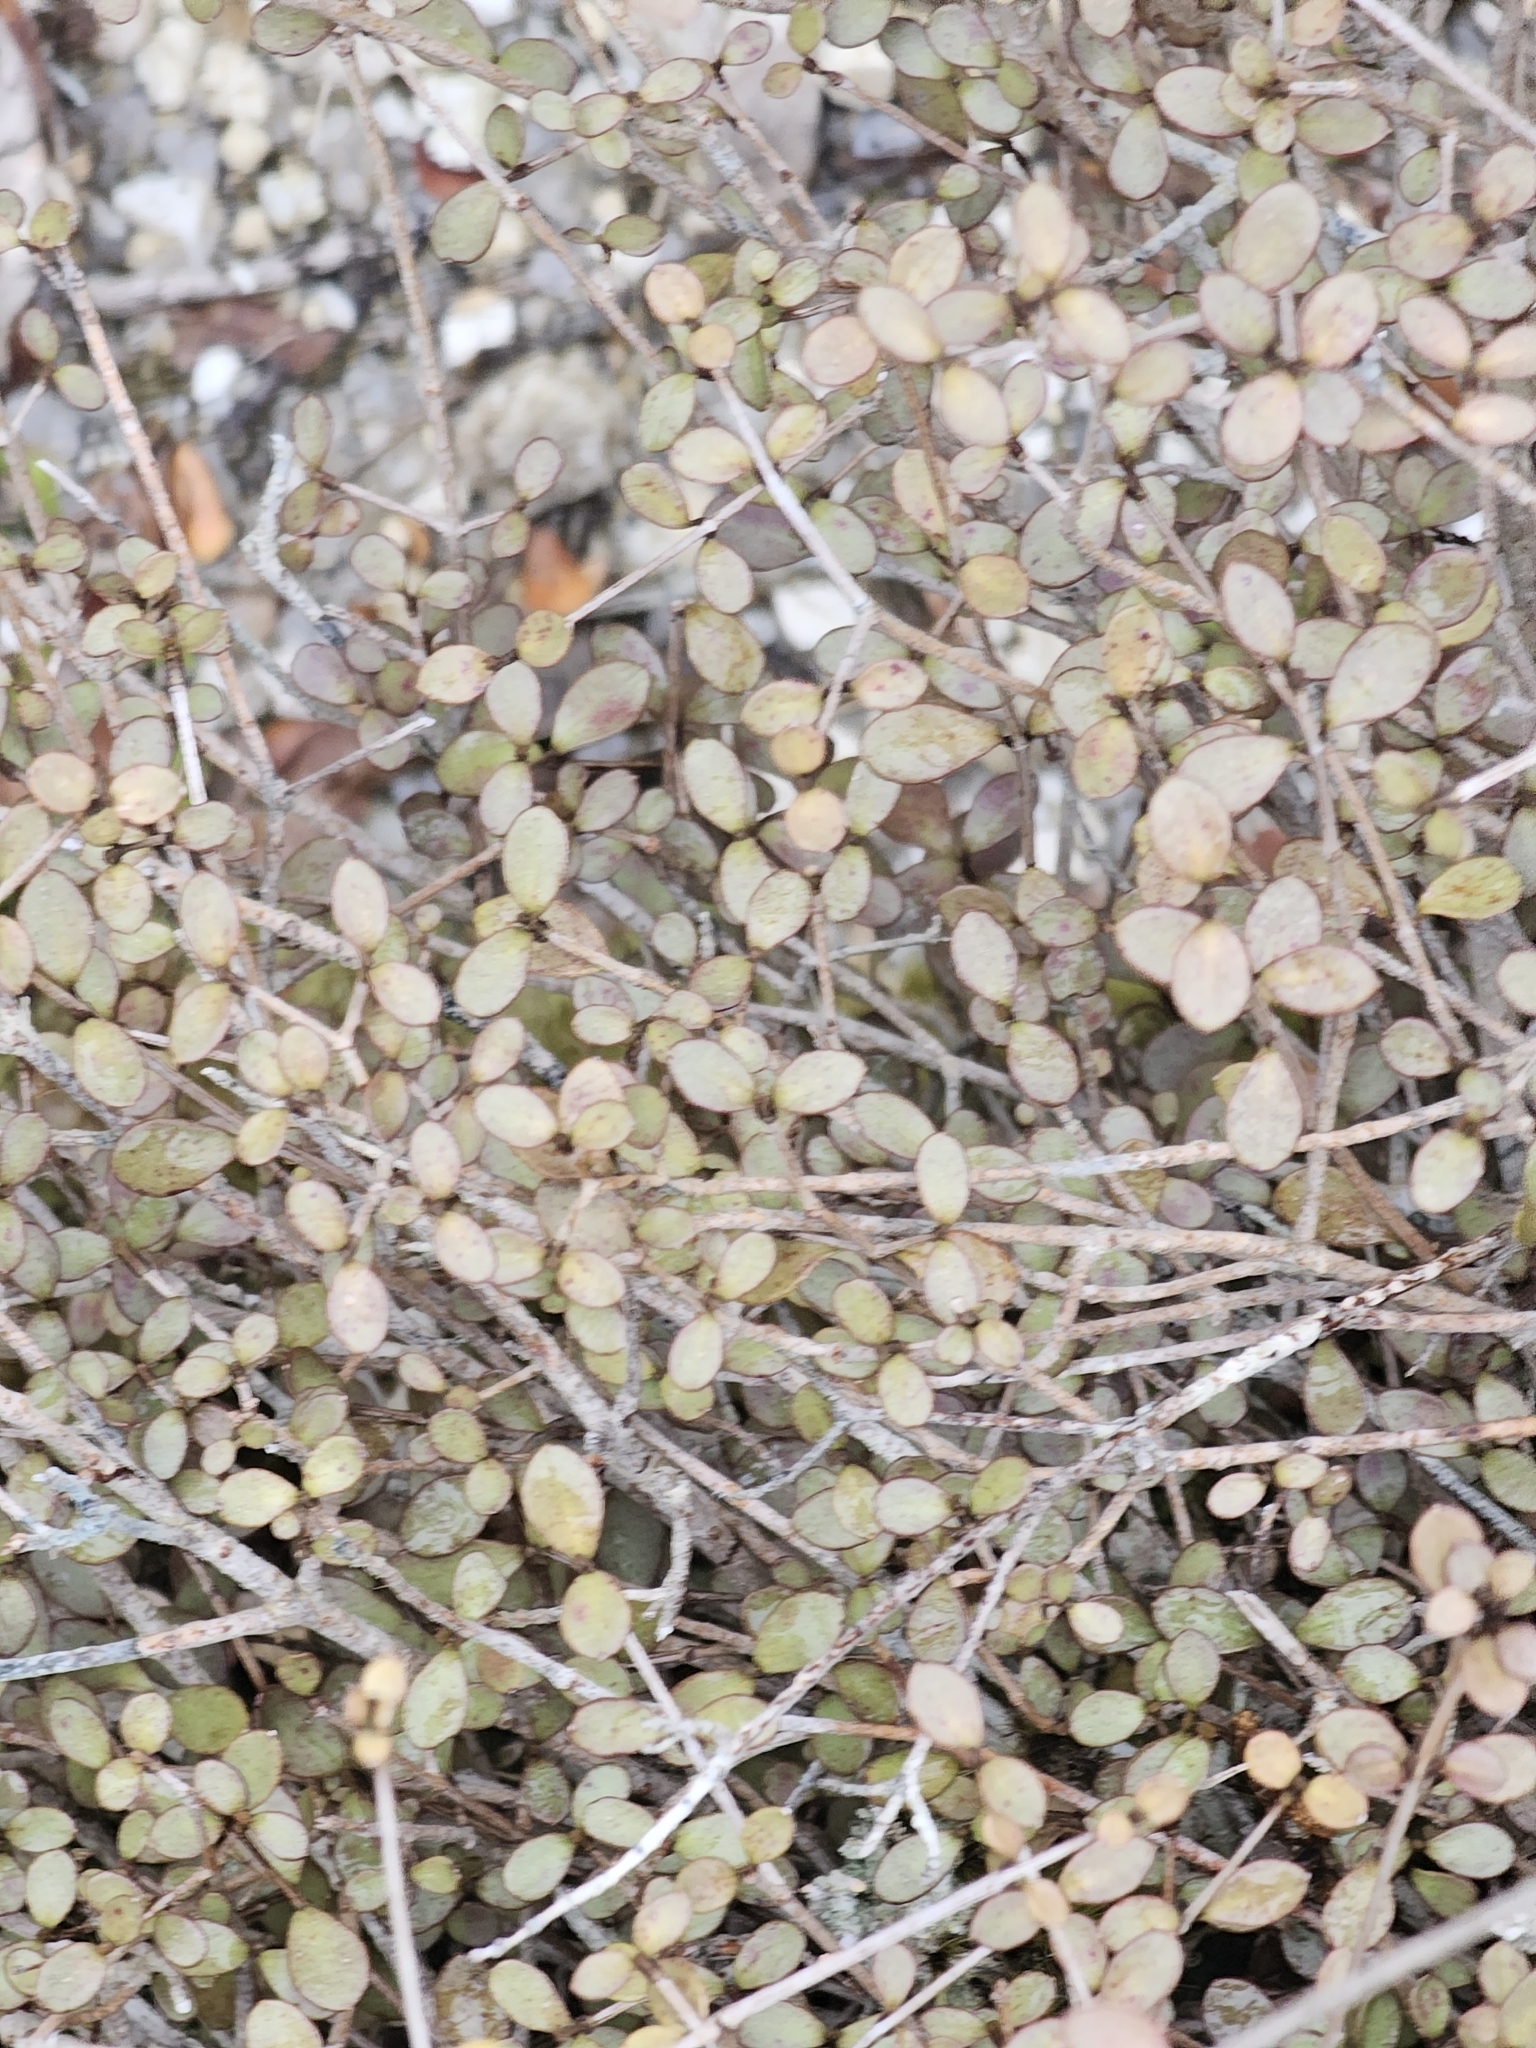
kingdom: Plantae
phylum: Tracheophyta
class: Magnoliopsida
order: Myrtales
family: Myrtaceae
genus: Neomyrtus
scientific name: Neomyrtus pedunculata
